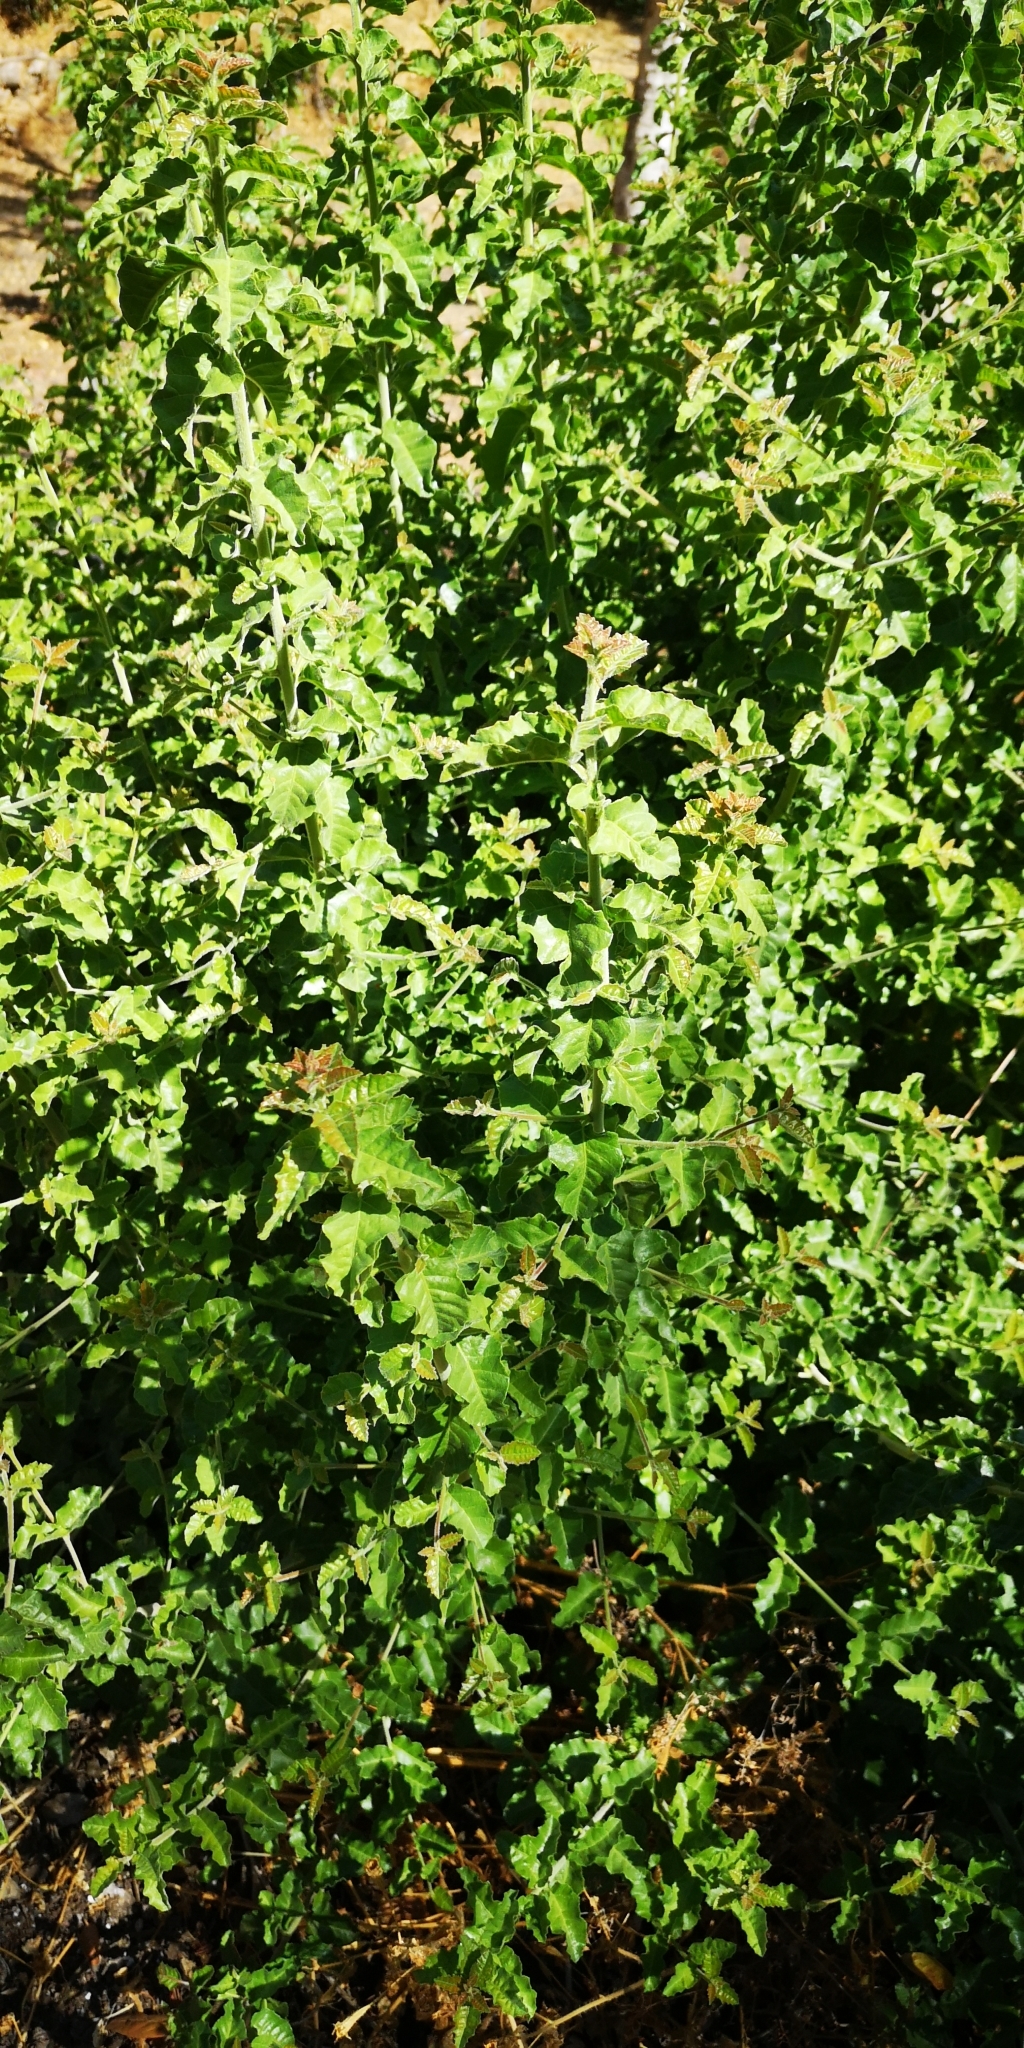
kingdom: Plantae
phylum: Tracheophyta
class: Magnoliopsida
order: Sapindales
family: Anacardiaceae
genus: Schinus
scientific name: Schinus latifolia
